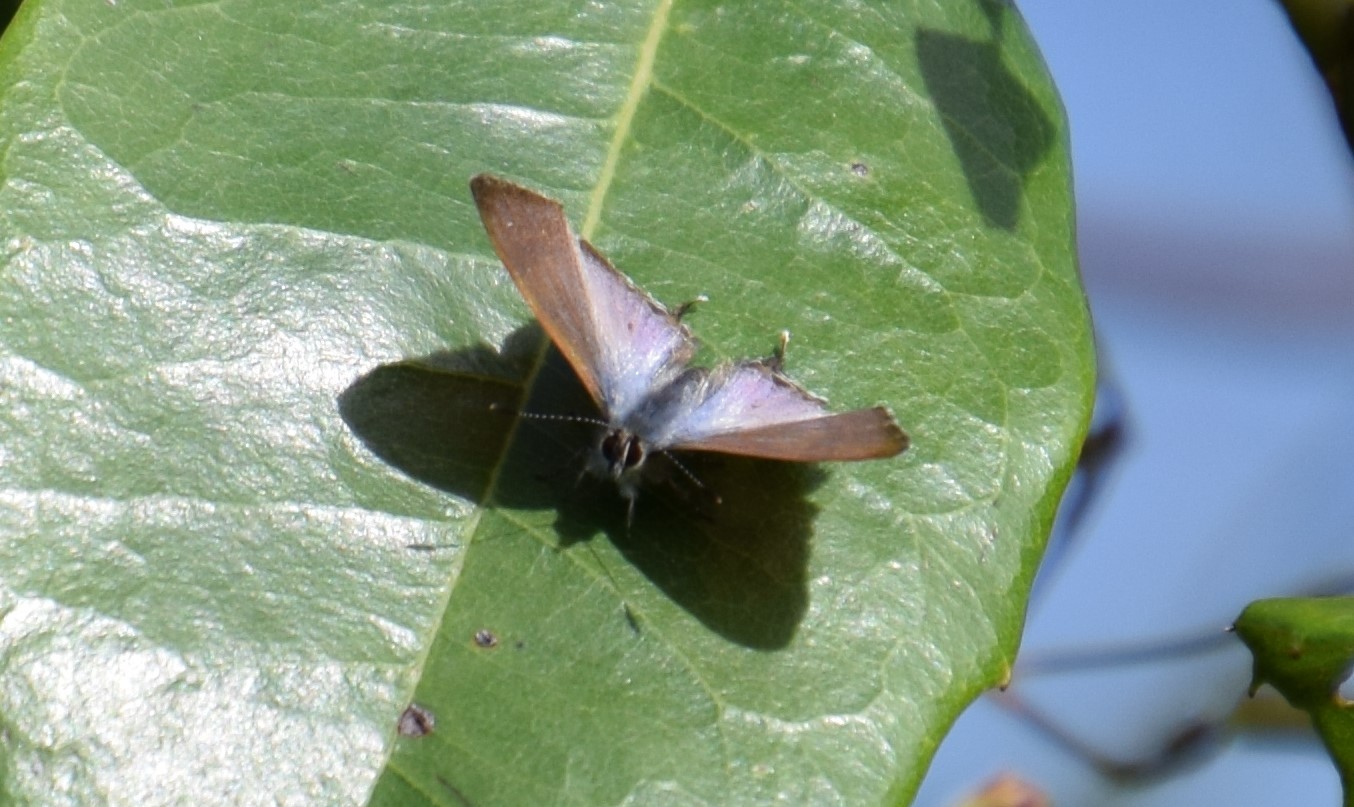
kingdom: Animalia
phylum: Arthropoda
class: Insecta
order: Lepidoptera
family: Lycaenidae
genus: Sahulana
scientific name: Sahulana scintillata
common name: Glistening blue
